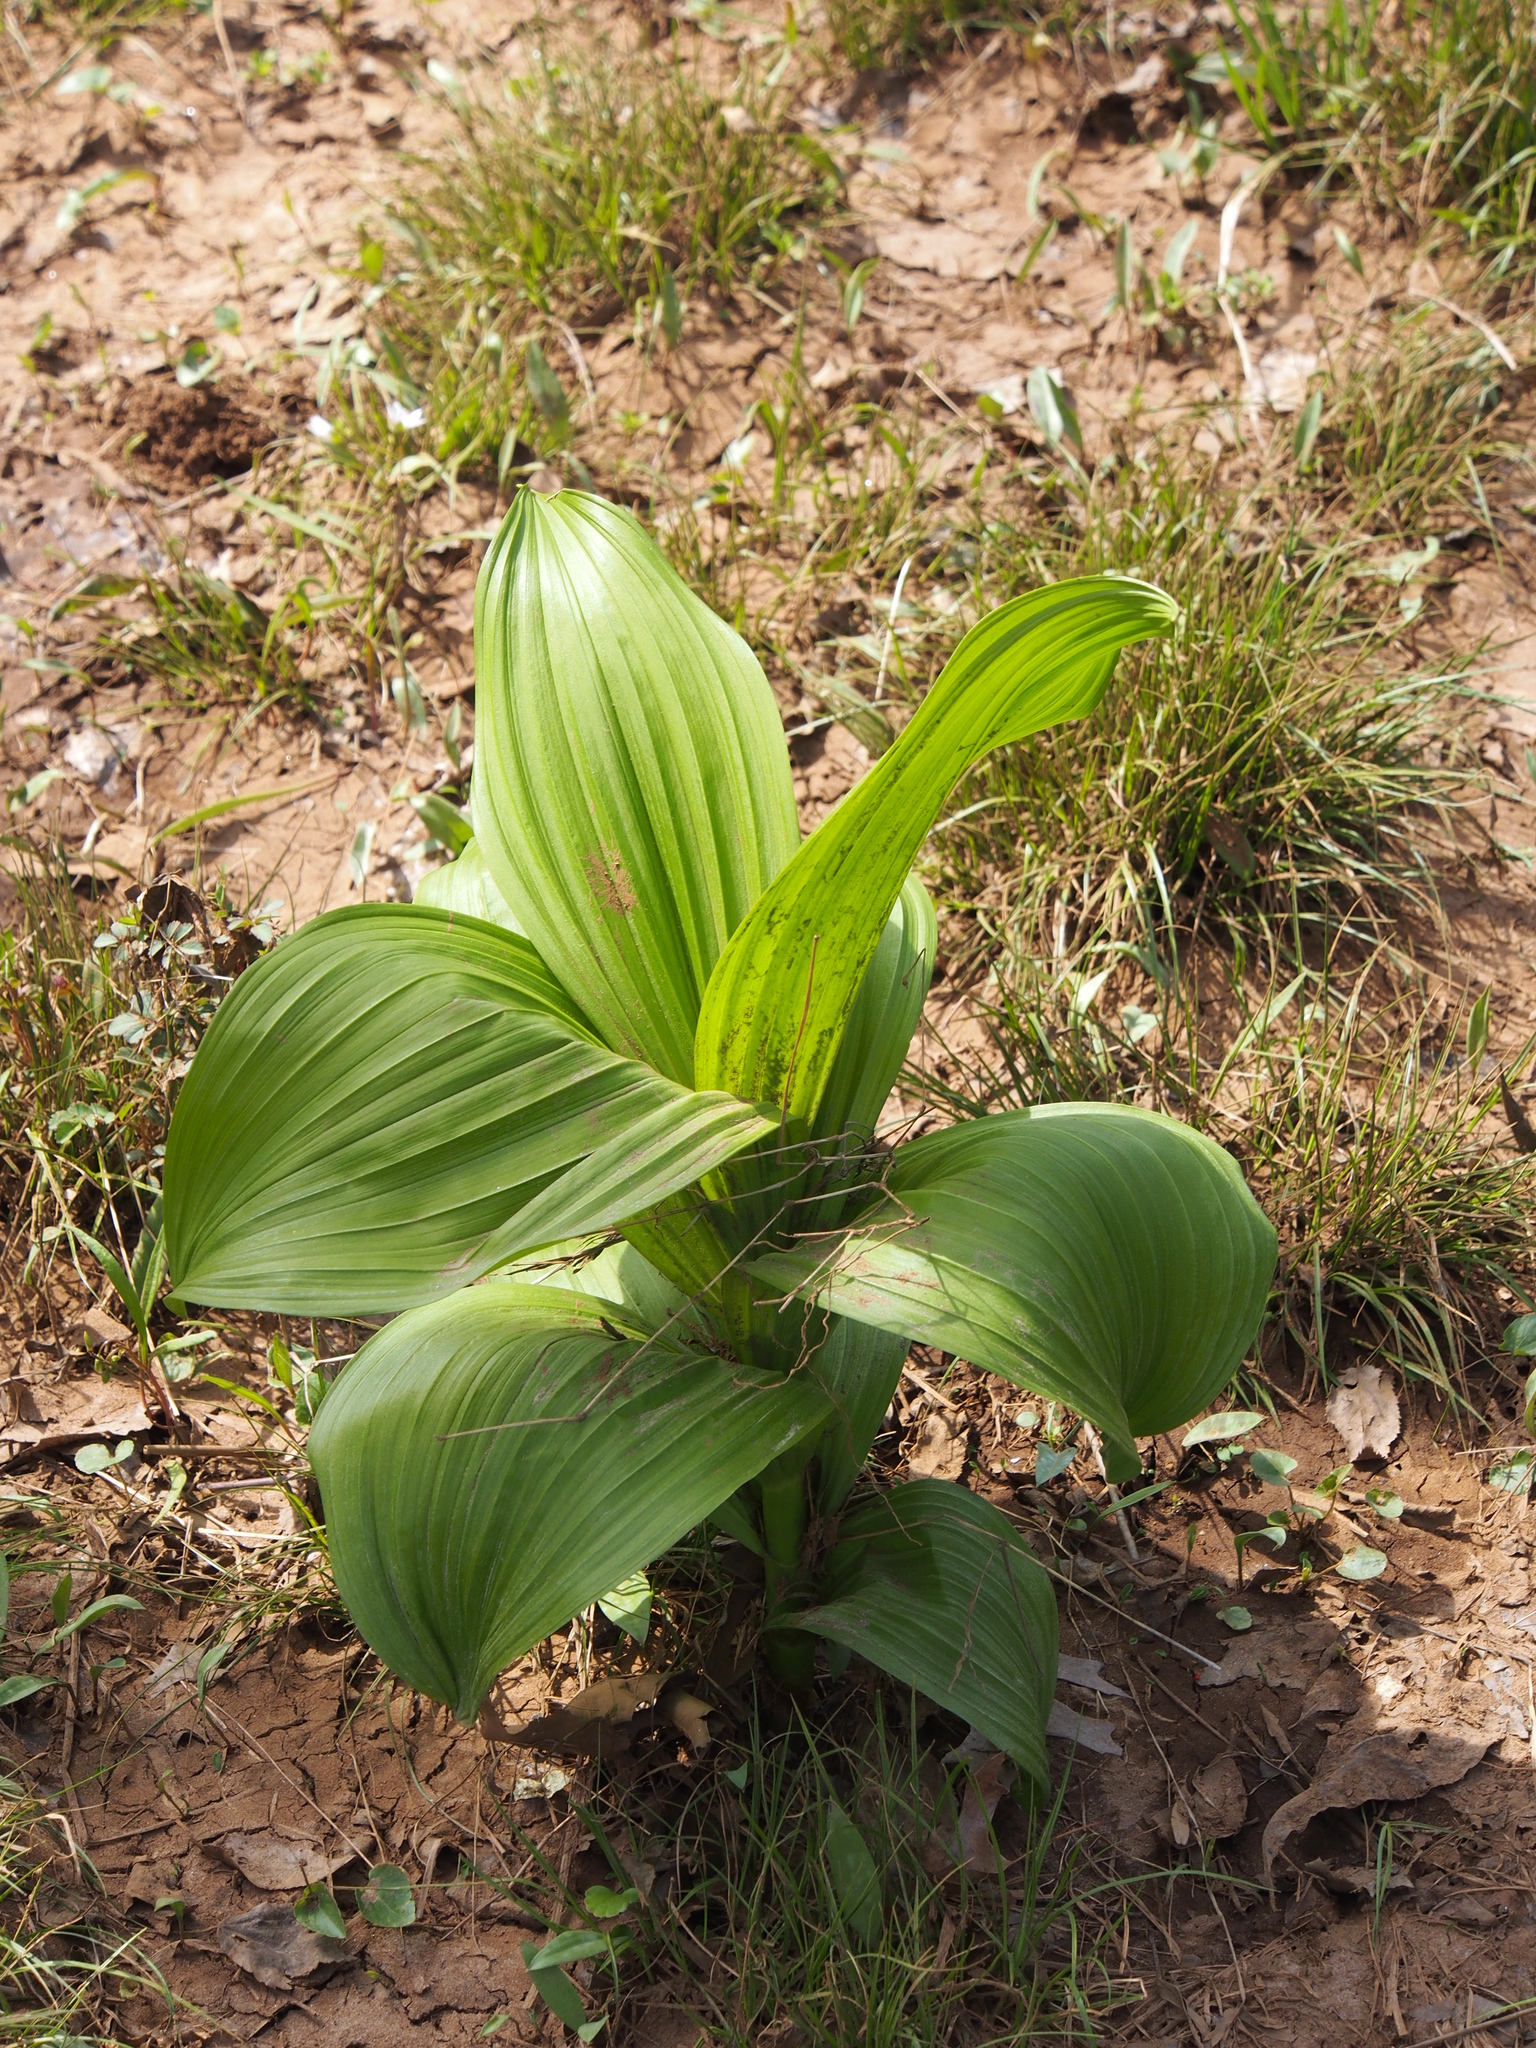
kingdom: Plantae
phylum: Tracheophyta
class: Liliopsida
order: Liliales
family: Melanthiaceae
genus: Veratrum
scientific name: Veratrum viride
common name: American false hellebore
